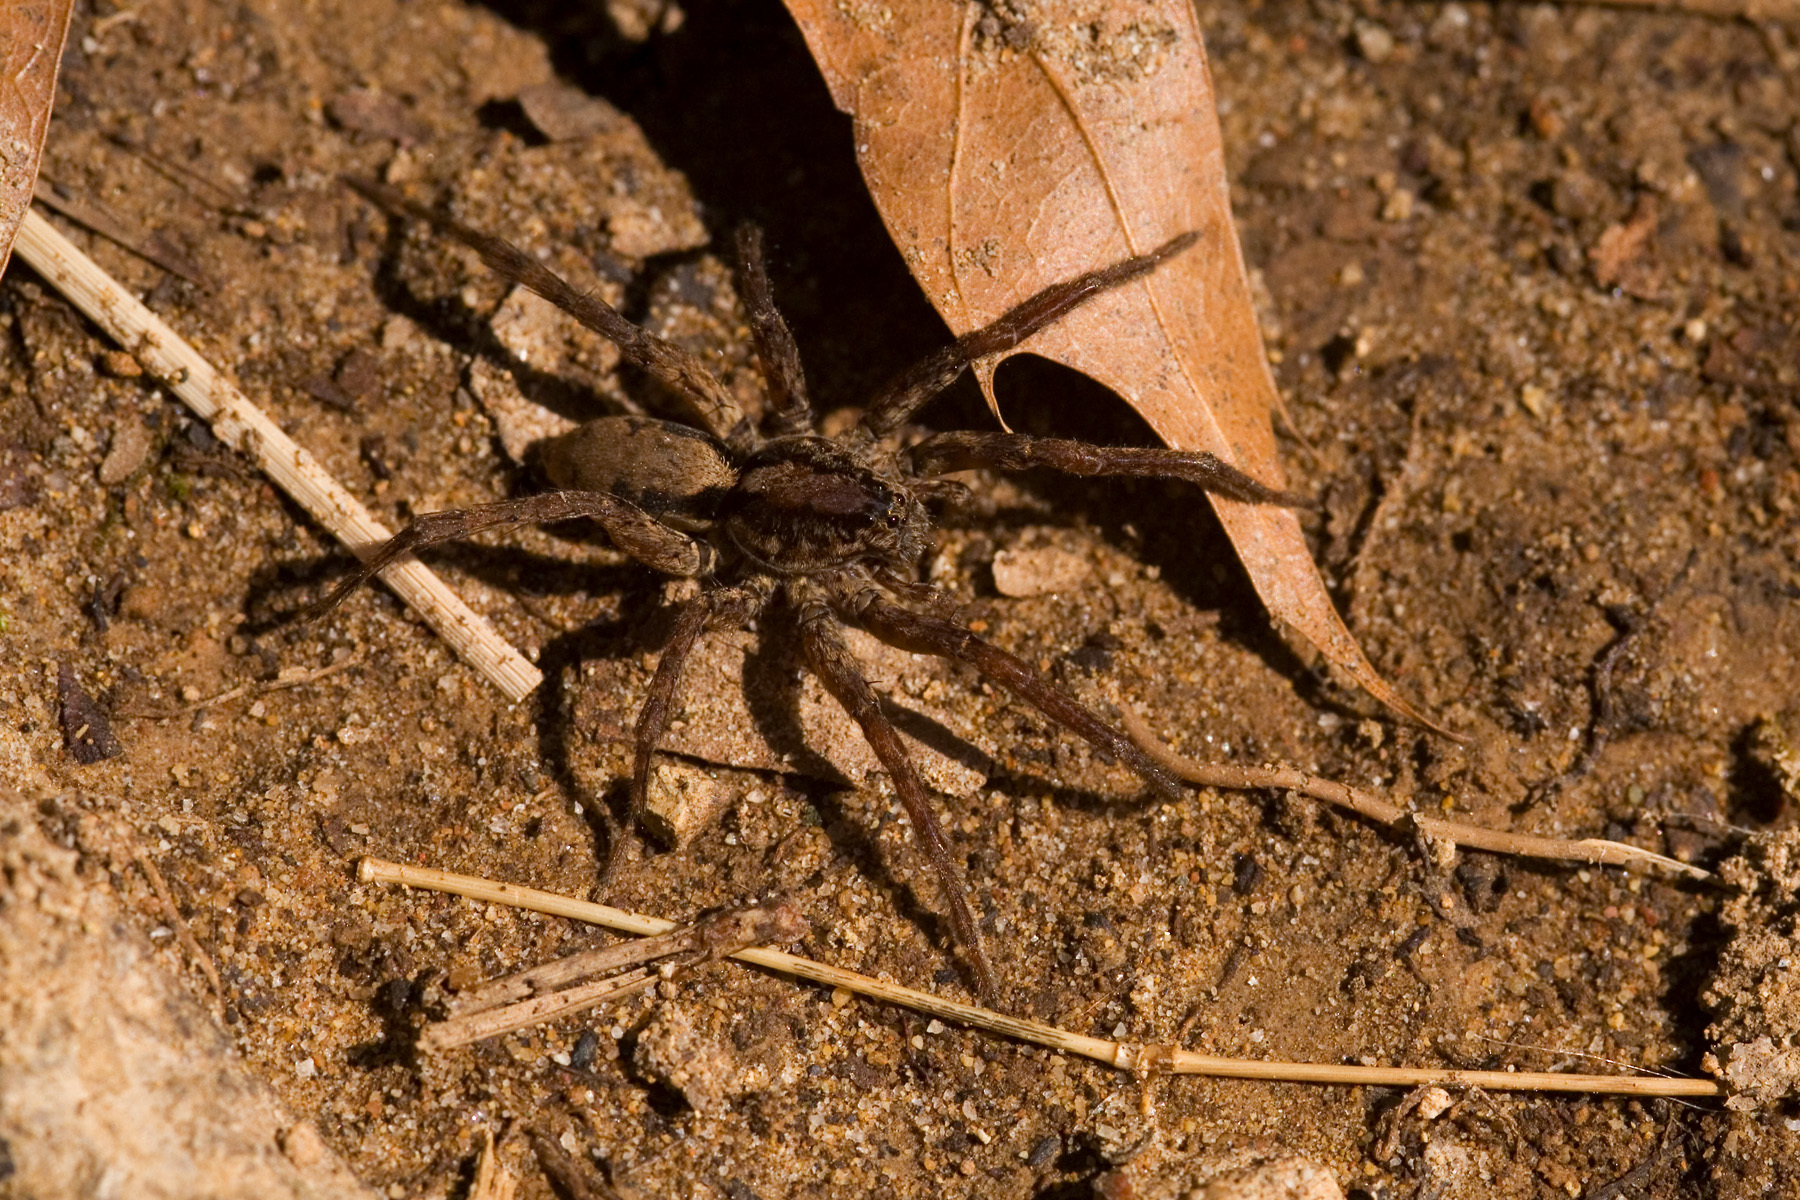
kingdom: Animalia
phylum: Arthropoda
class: Arachnida
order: Araneae
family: Lycosidae
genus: Gladicosa
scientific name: Gladicosa gulosa
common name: Drumming sword wolf spider
